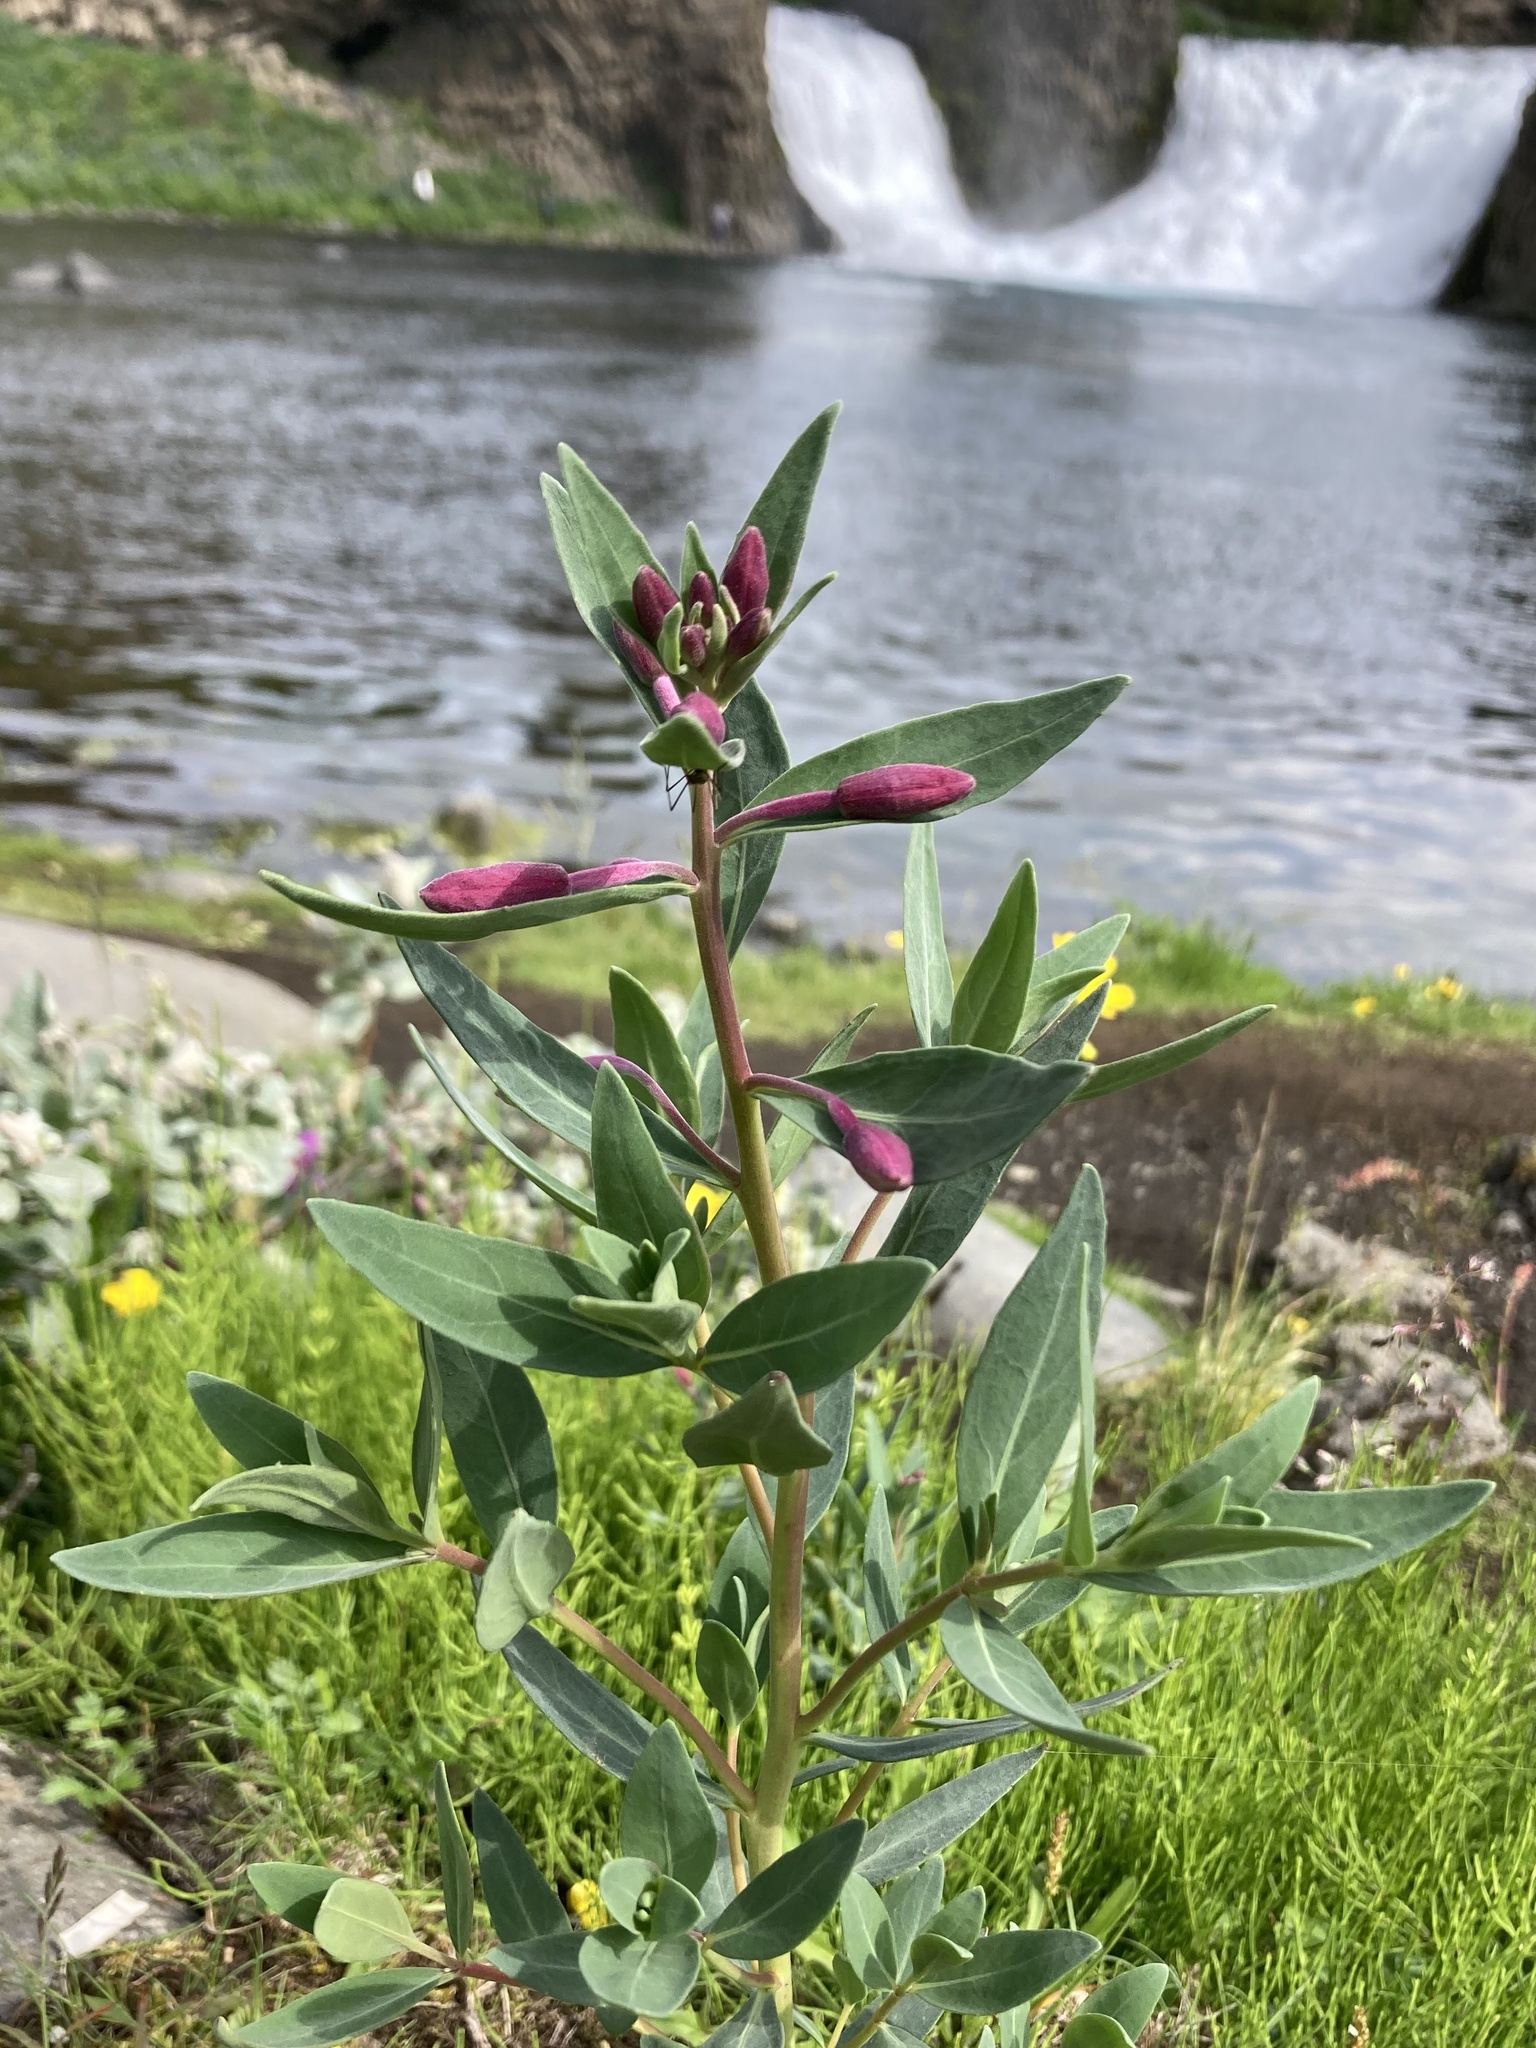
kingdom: Plantae
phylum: Tracheophyta
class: Magnoliopsida
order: Myrtales
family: Onagraceae
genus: Chamaenerion
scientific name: Chamaenerion latifolium
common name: Dwarf fireweed
